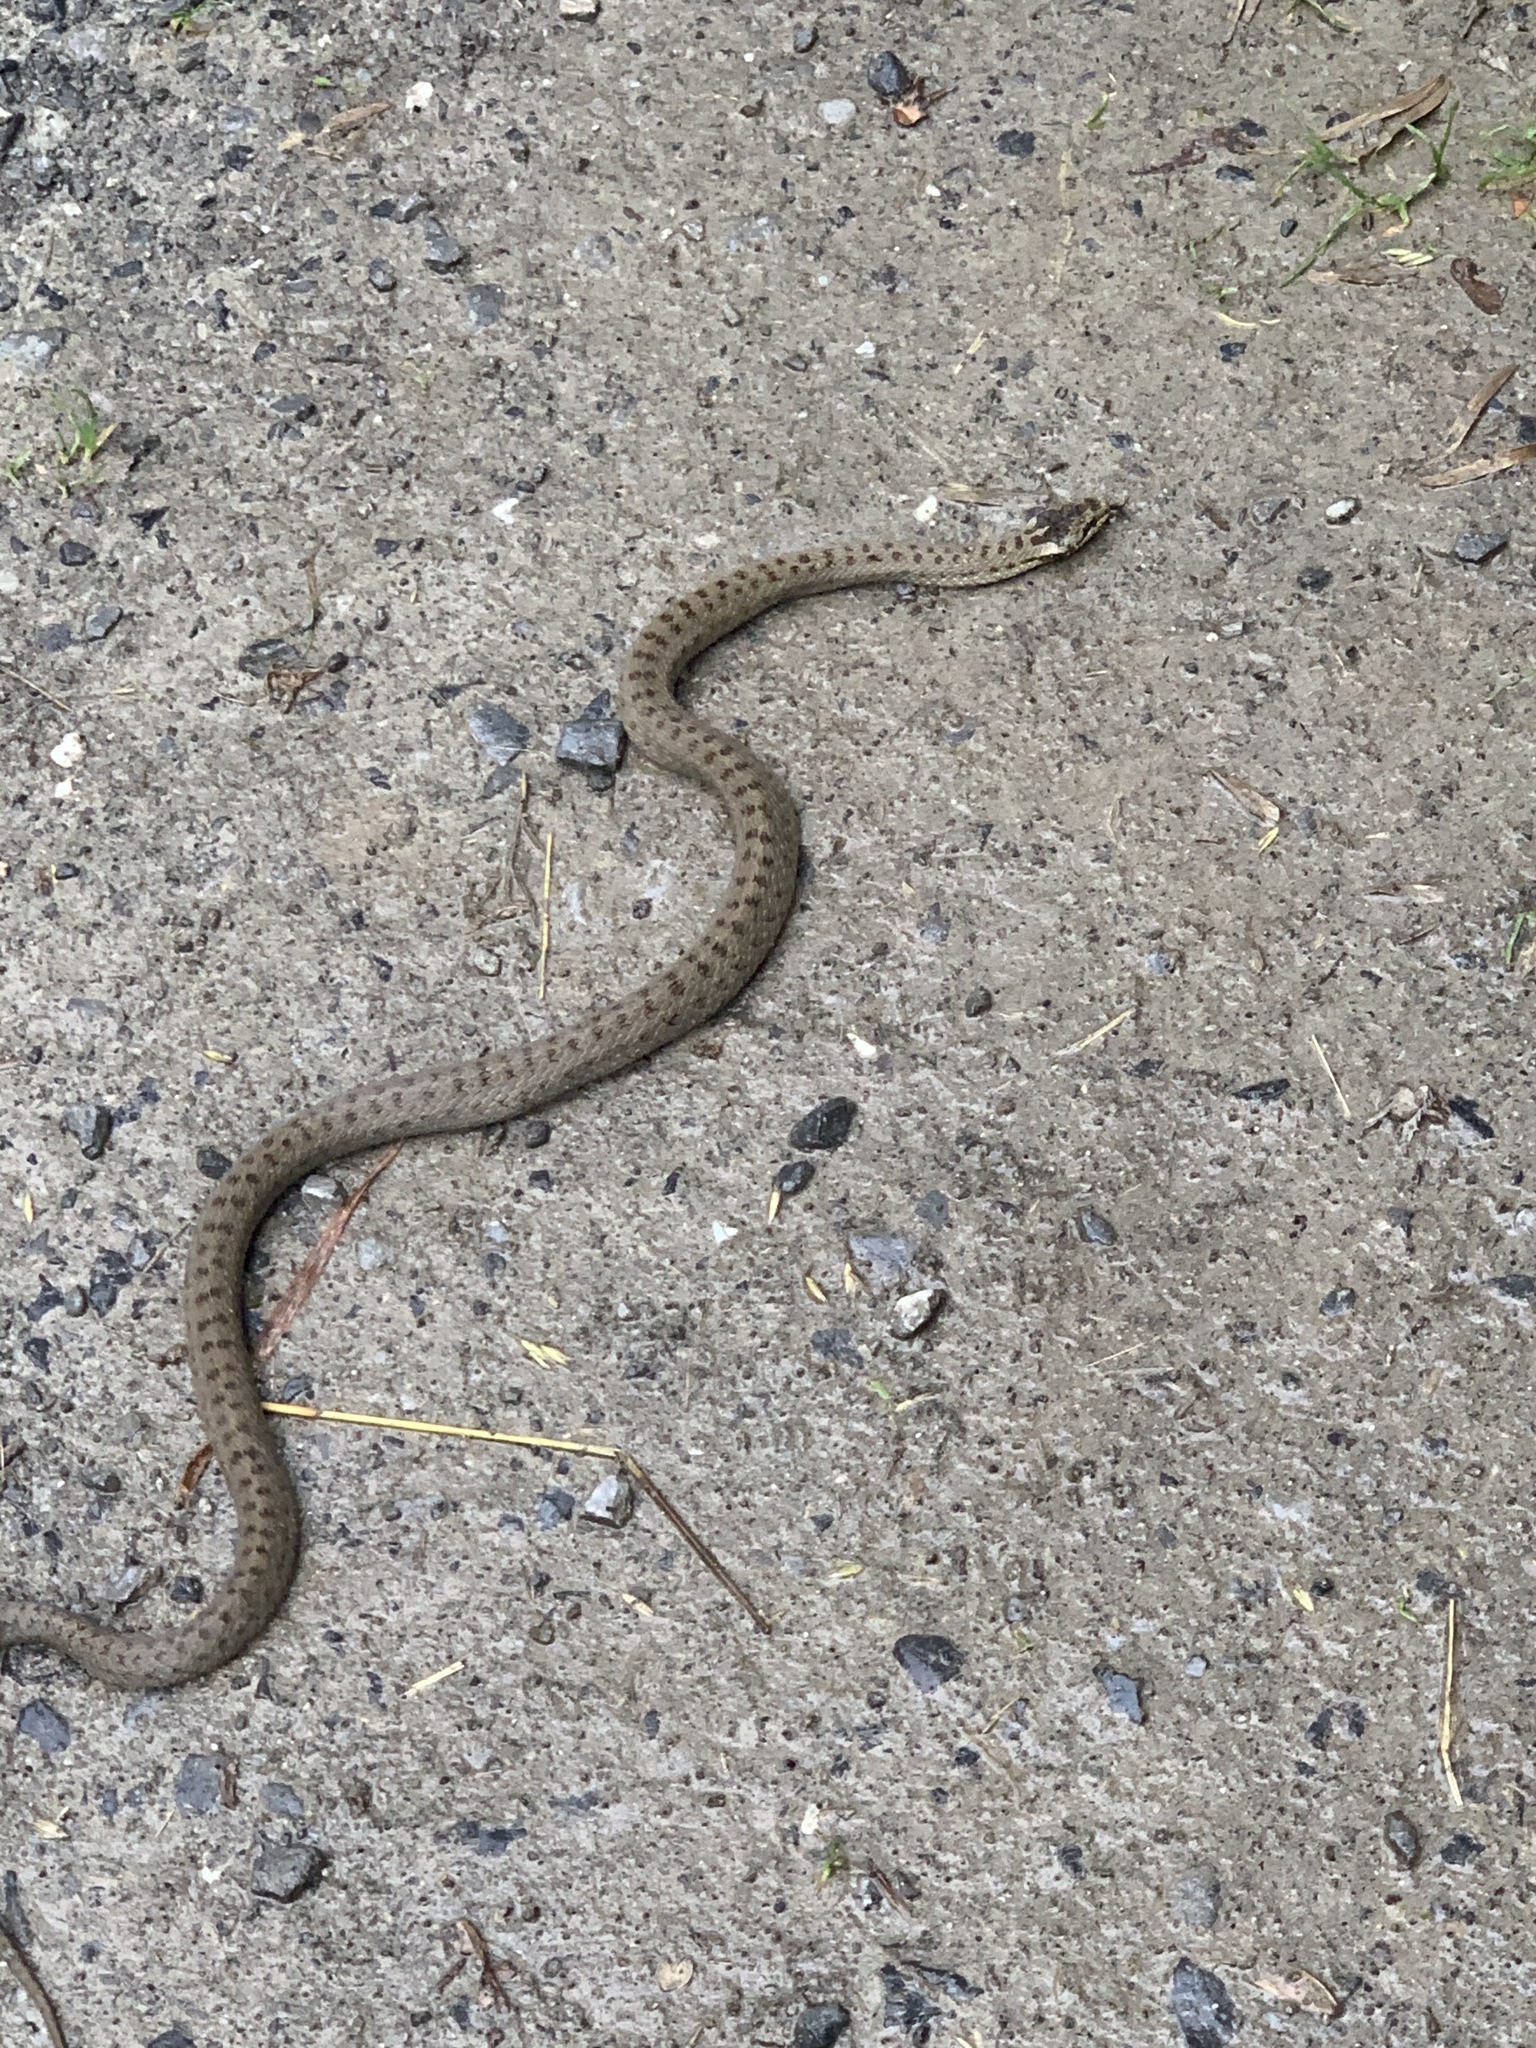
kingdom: Animalia
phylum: Chordata
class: Squamata
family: Colubridae
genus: Coronella
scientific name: Coronella austriaca
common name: Smooth snake
